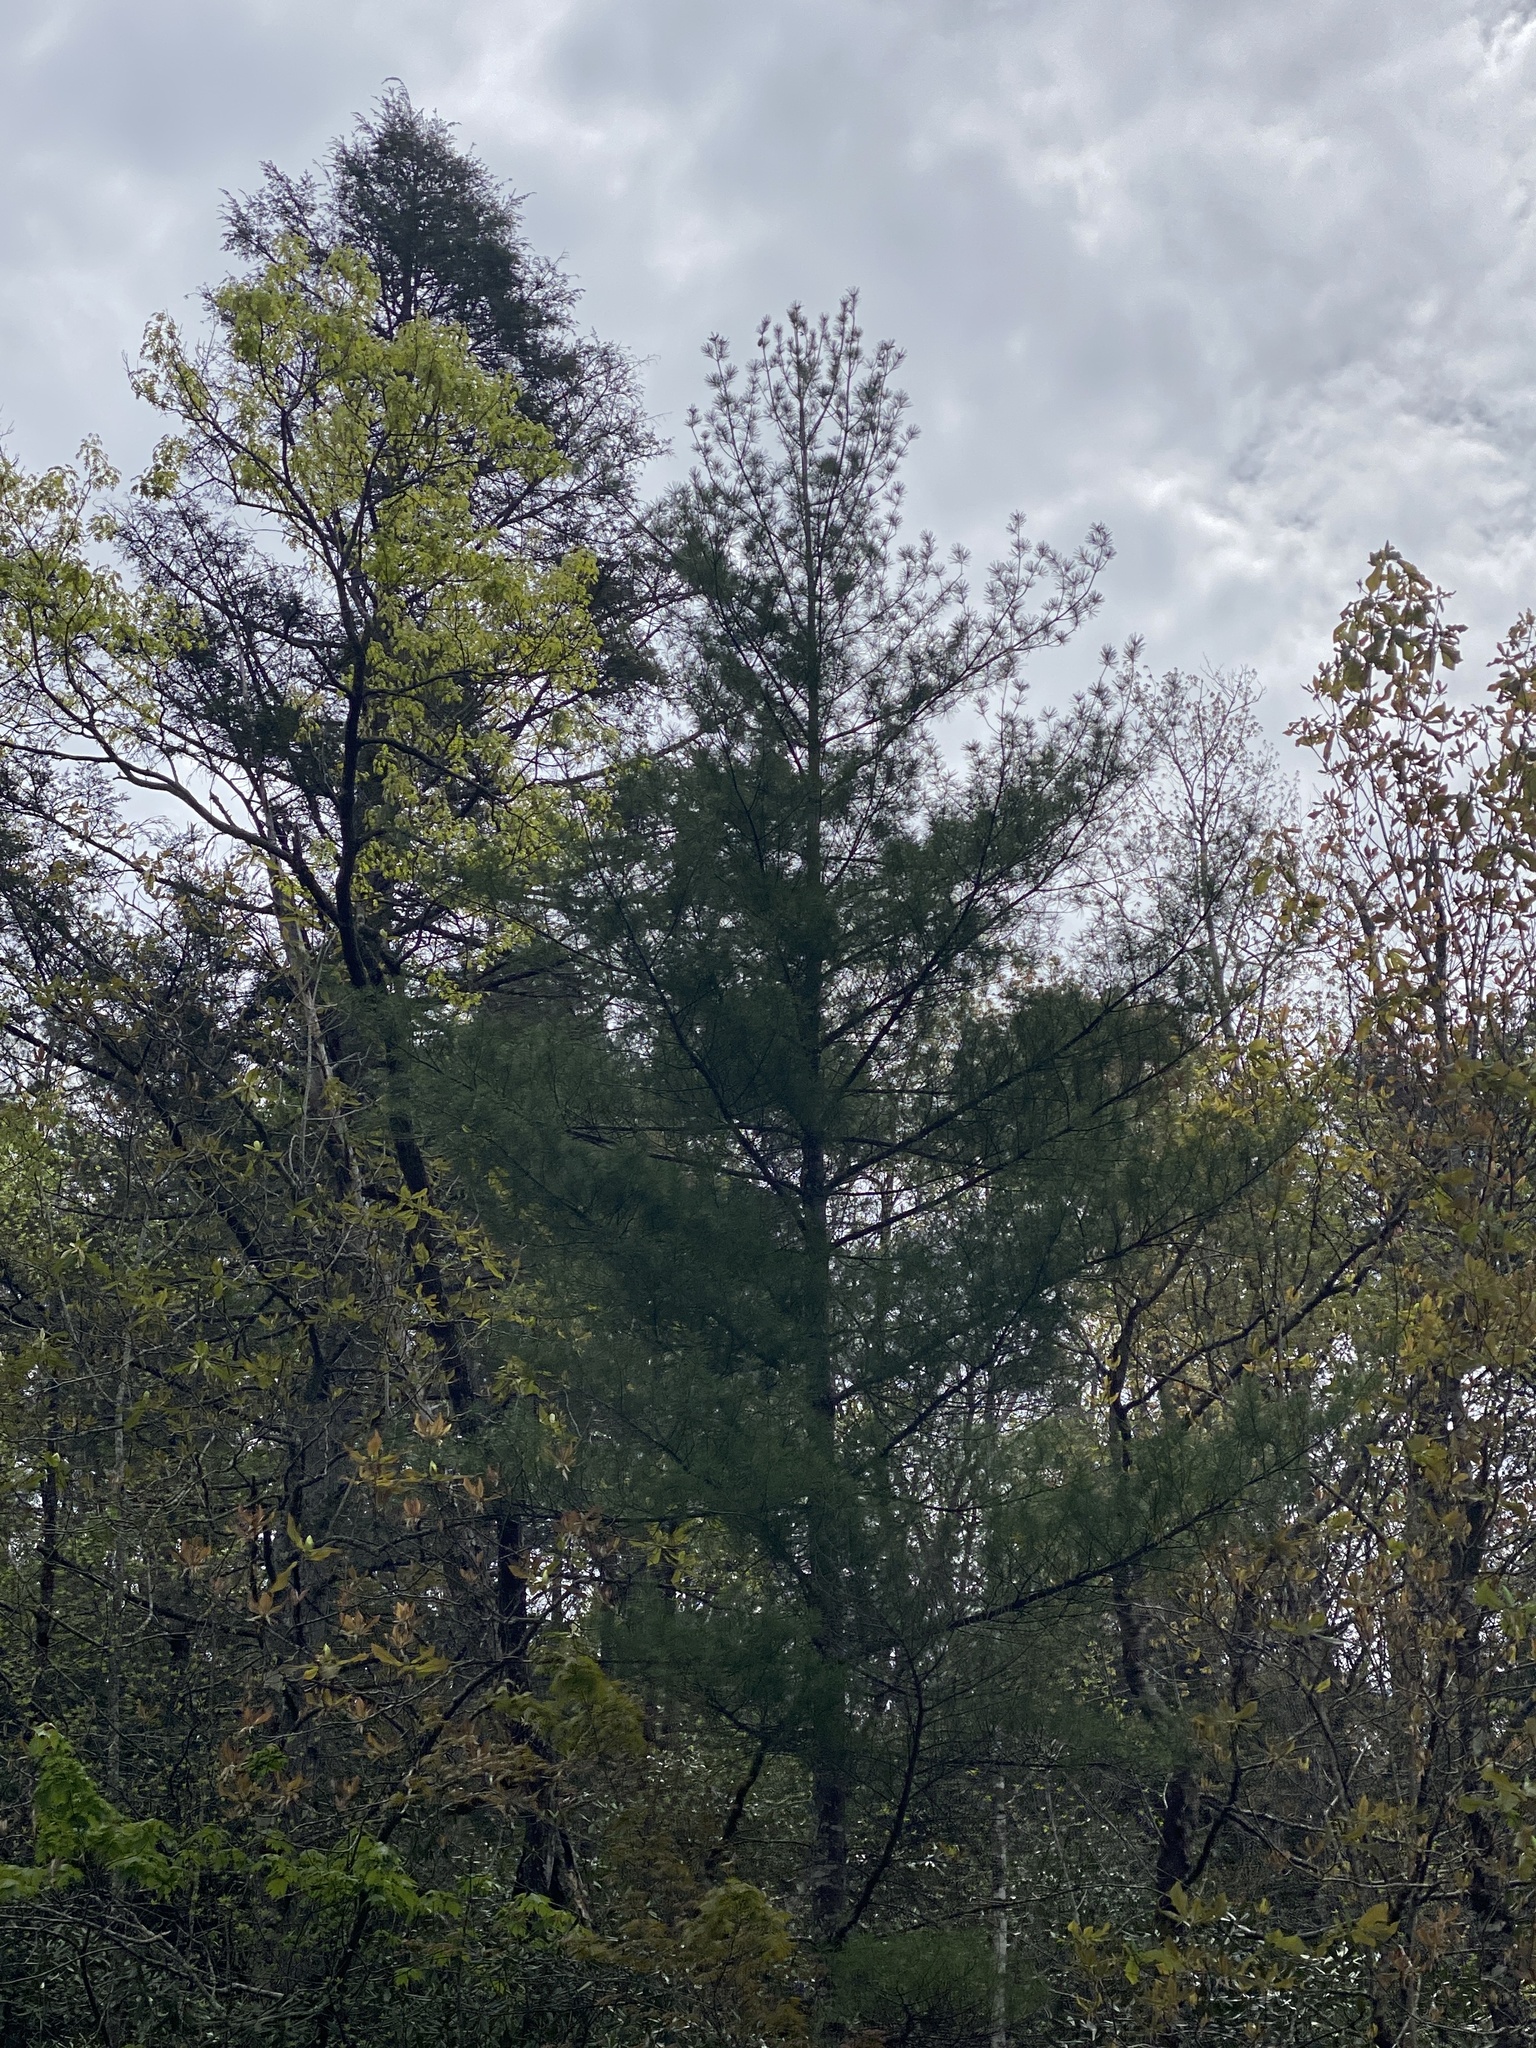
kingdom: Plantae
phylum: Tracheophyta
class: Pinopsida
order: Pinales
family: Pinaceae
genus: Pinus
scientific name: Pinus strobus
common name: Weymouth pine
